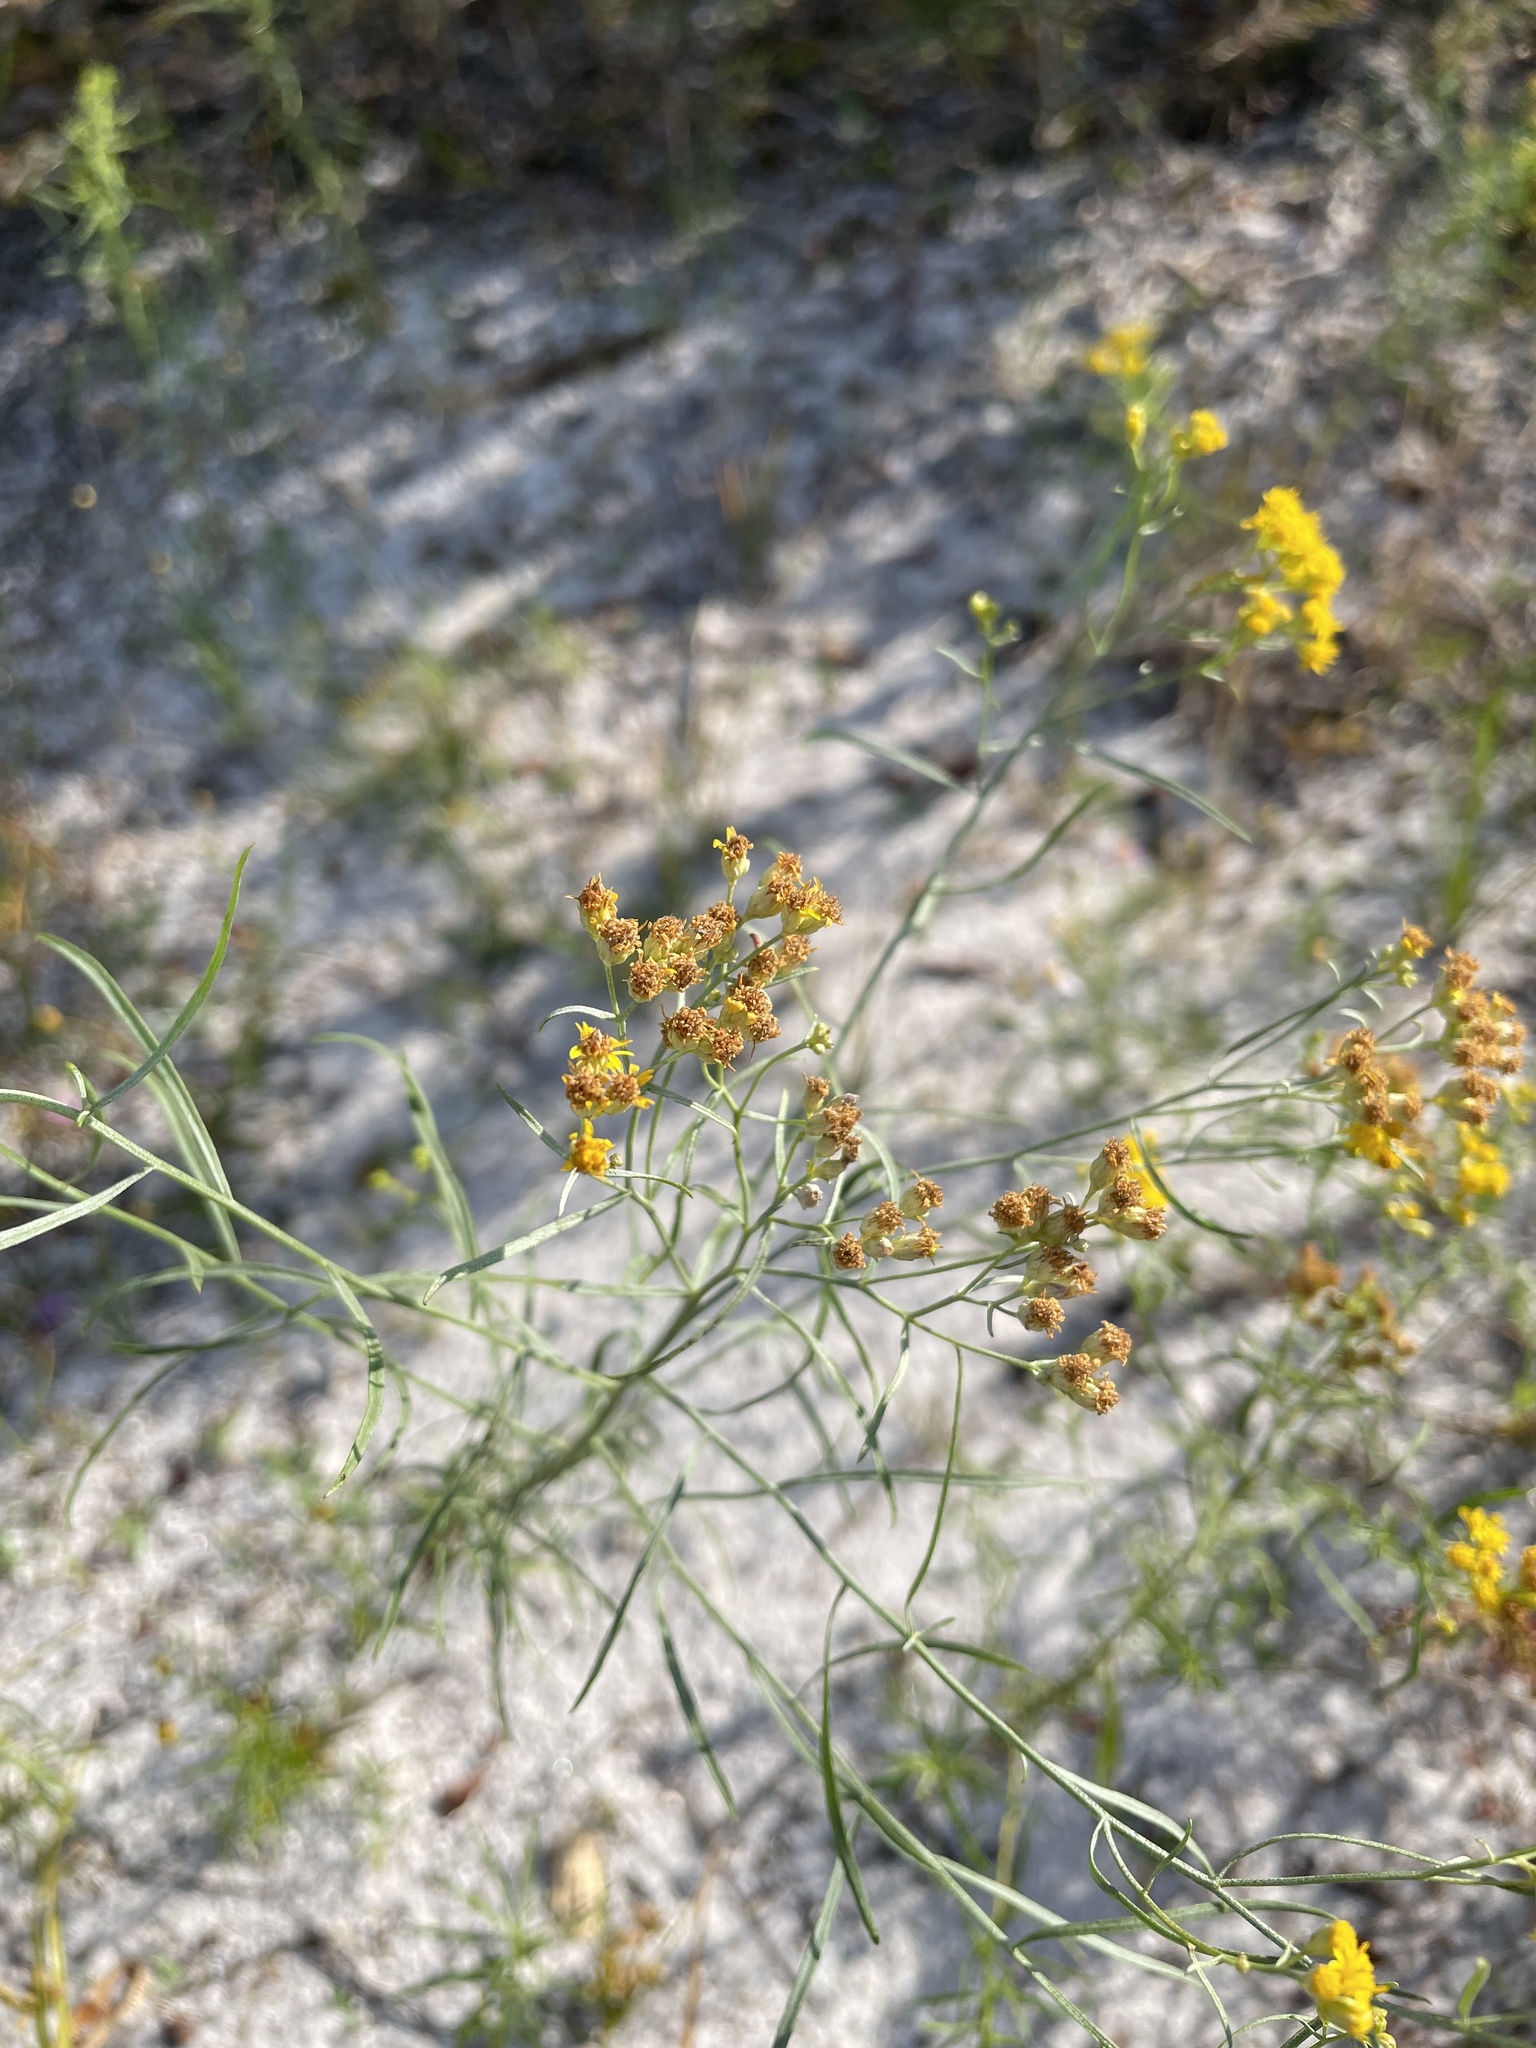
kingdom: Plantae
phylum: Tracheophyta
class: Magnoliopsida
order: Asterales
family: Asteraceae
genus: Euthamia
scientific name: Euthamia caroliniana
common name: Coastal plain goldentop
